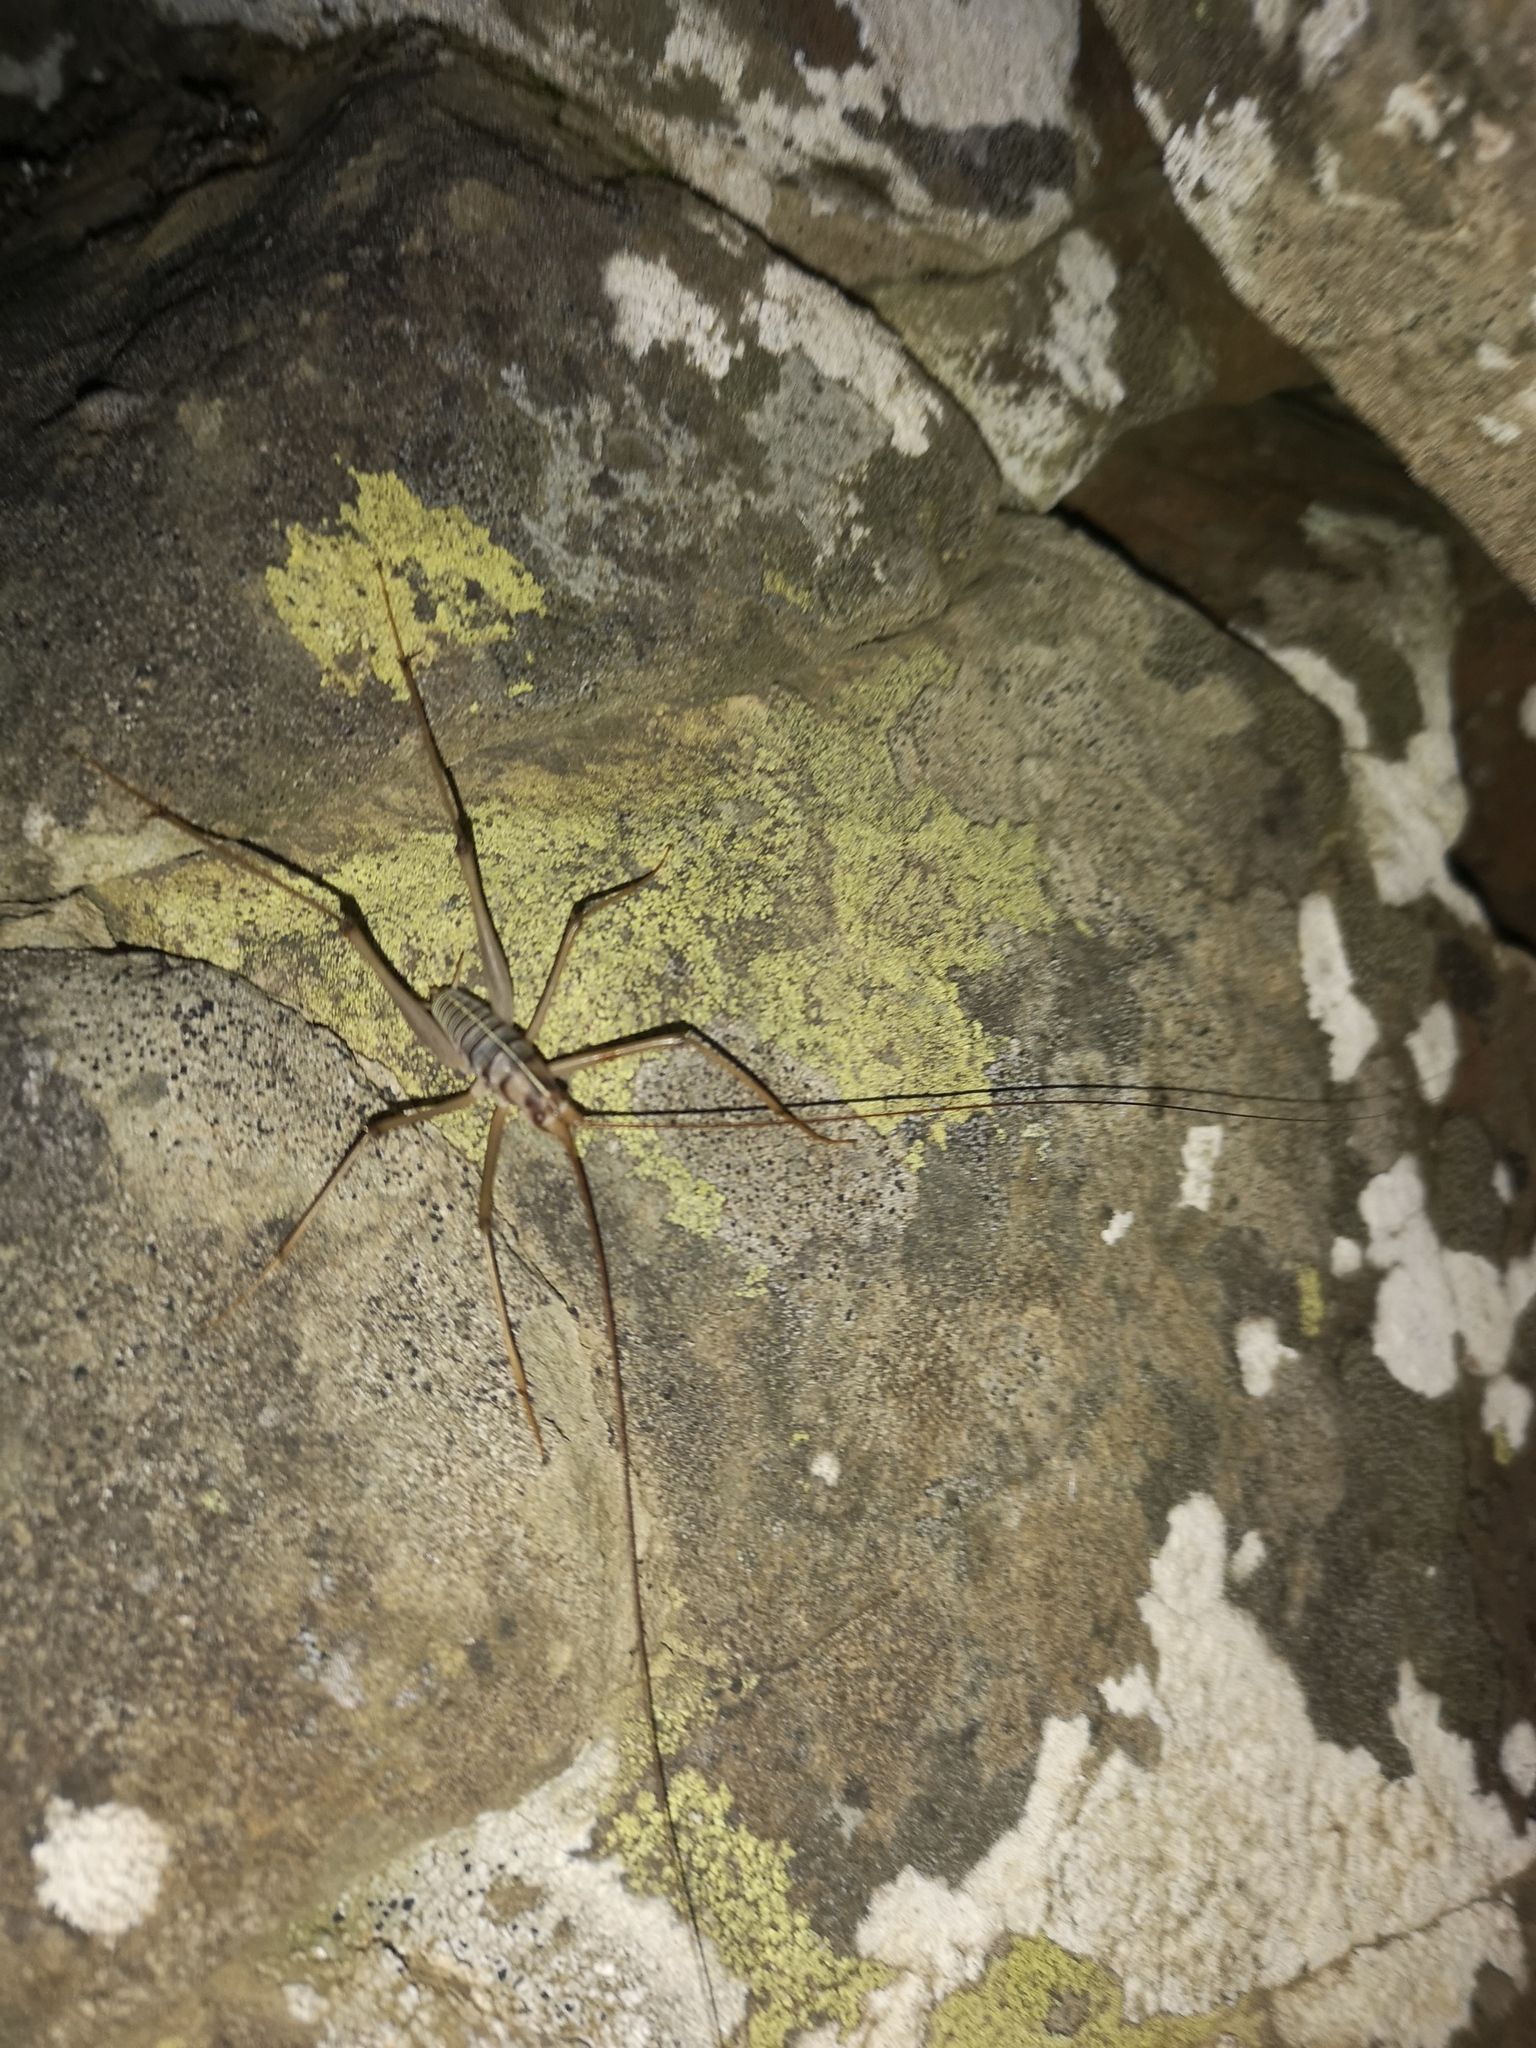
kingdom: Animalia
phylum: Arthropoda
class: Insecta
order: Orthoptera
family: Rhaphidophoridae
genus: Pleioplectron
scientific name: Pleioplectron rodmorrisi
